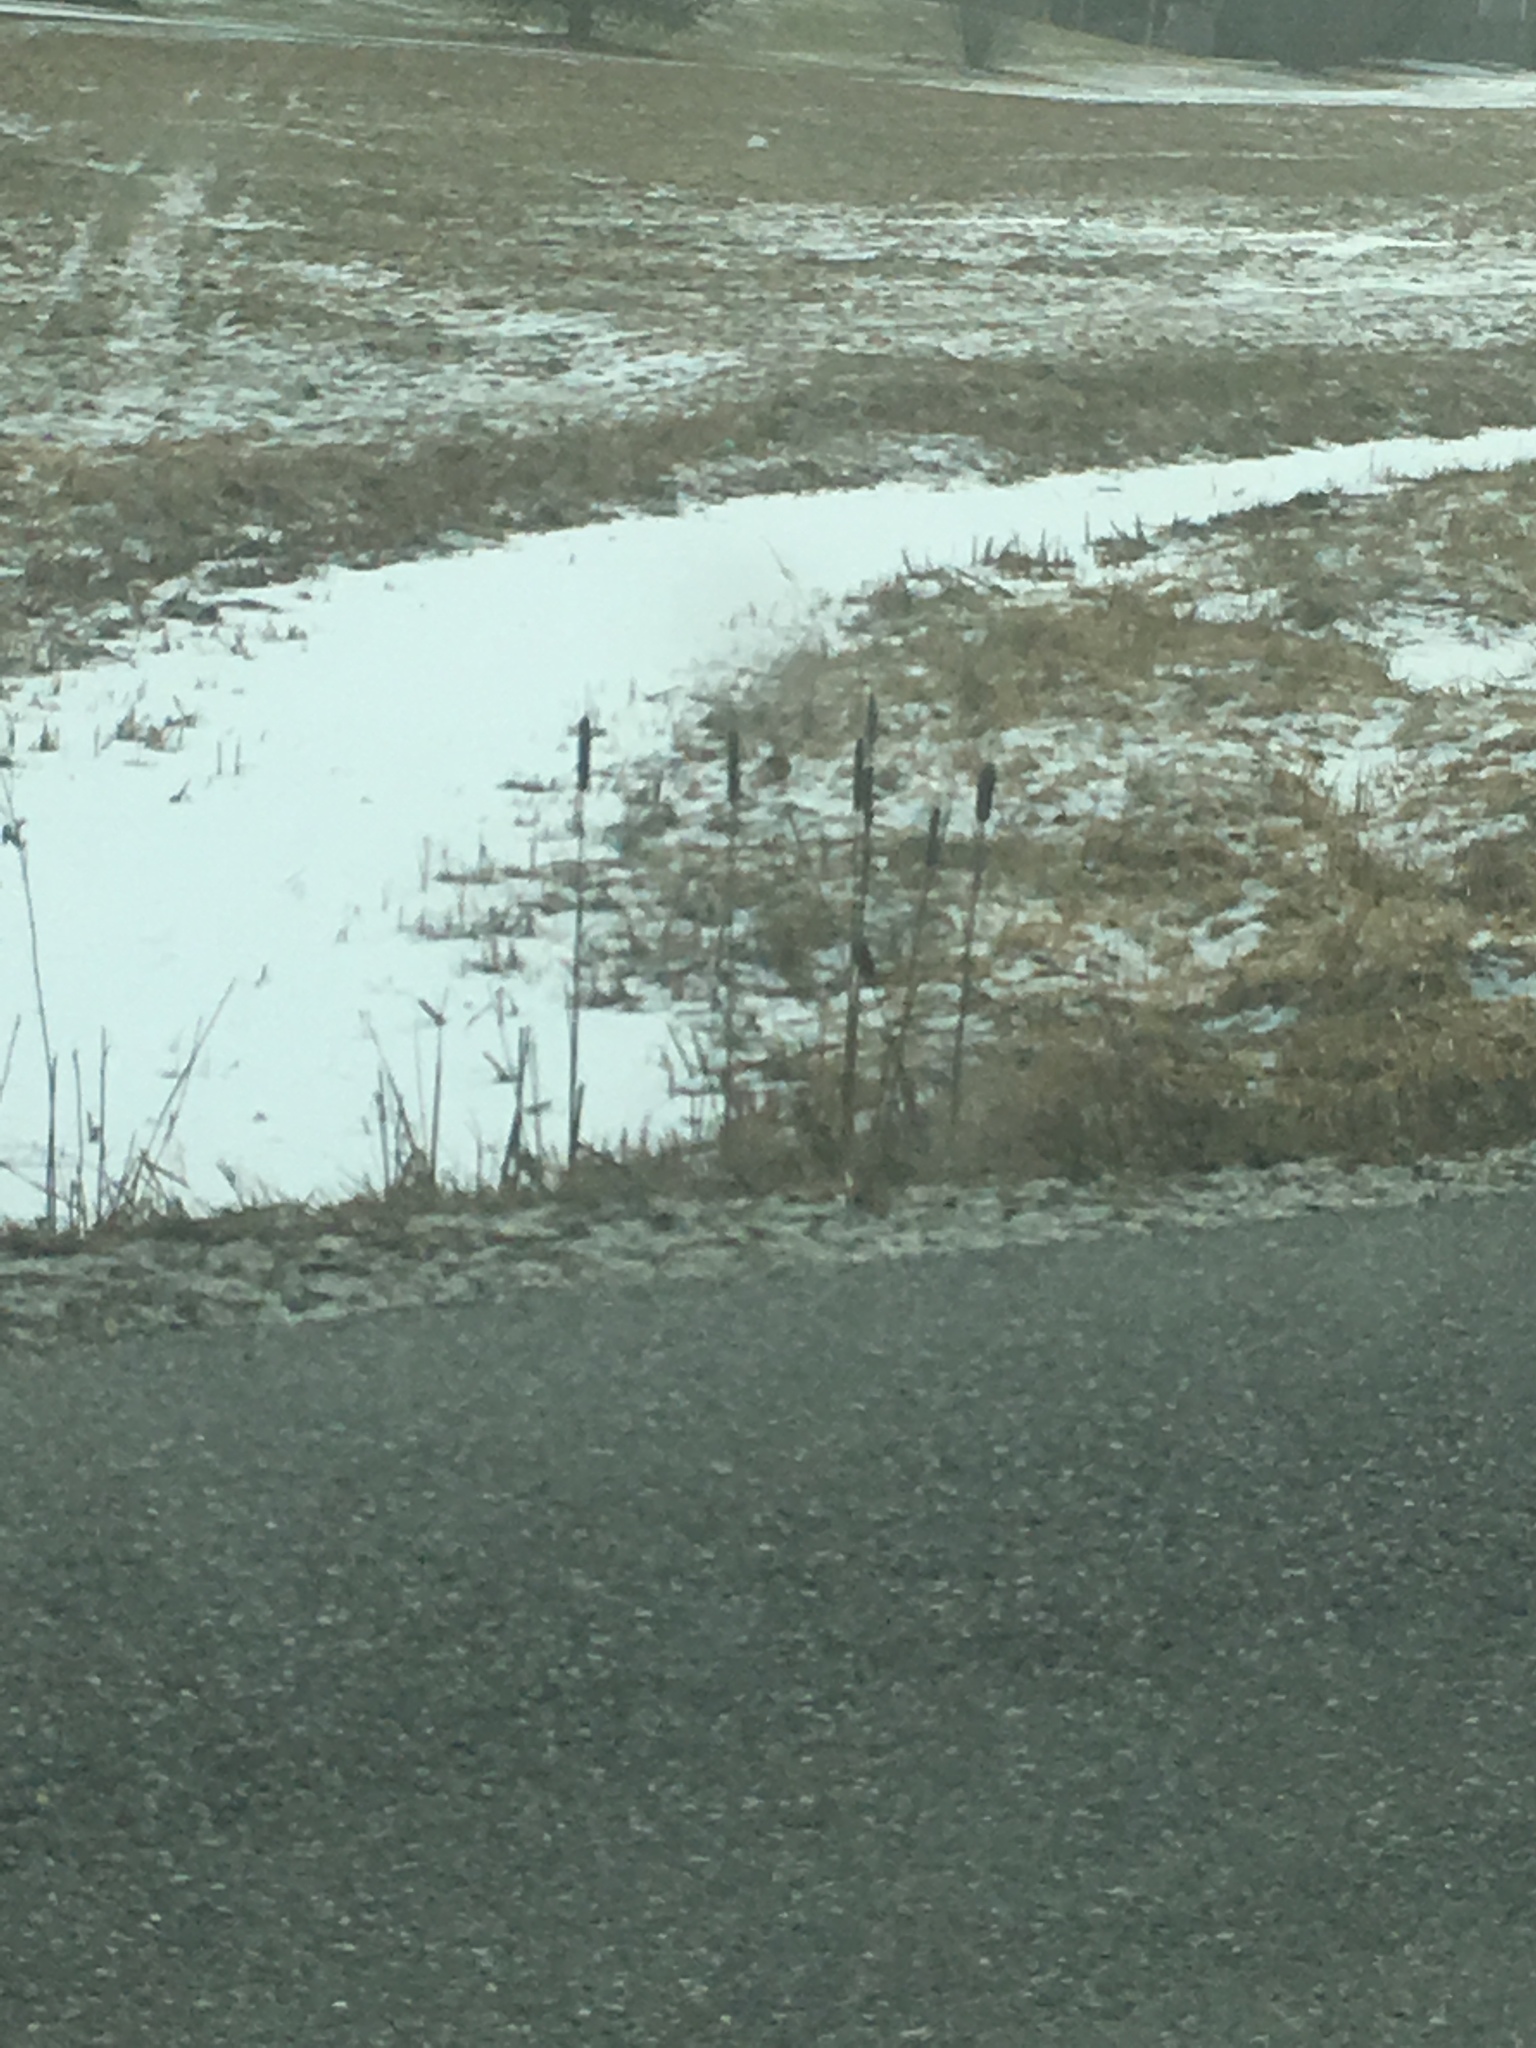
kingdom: Plantae
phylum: Tracheophyta
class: Liliopsida
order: Poales
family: Typhaceae
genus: Typha
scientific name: Typha angustifolia
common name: Lesser bulrush
